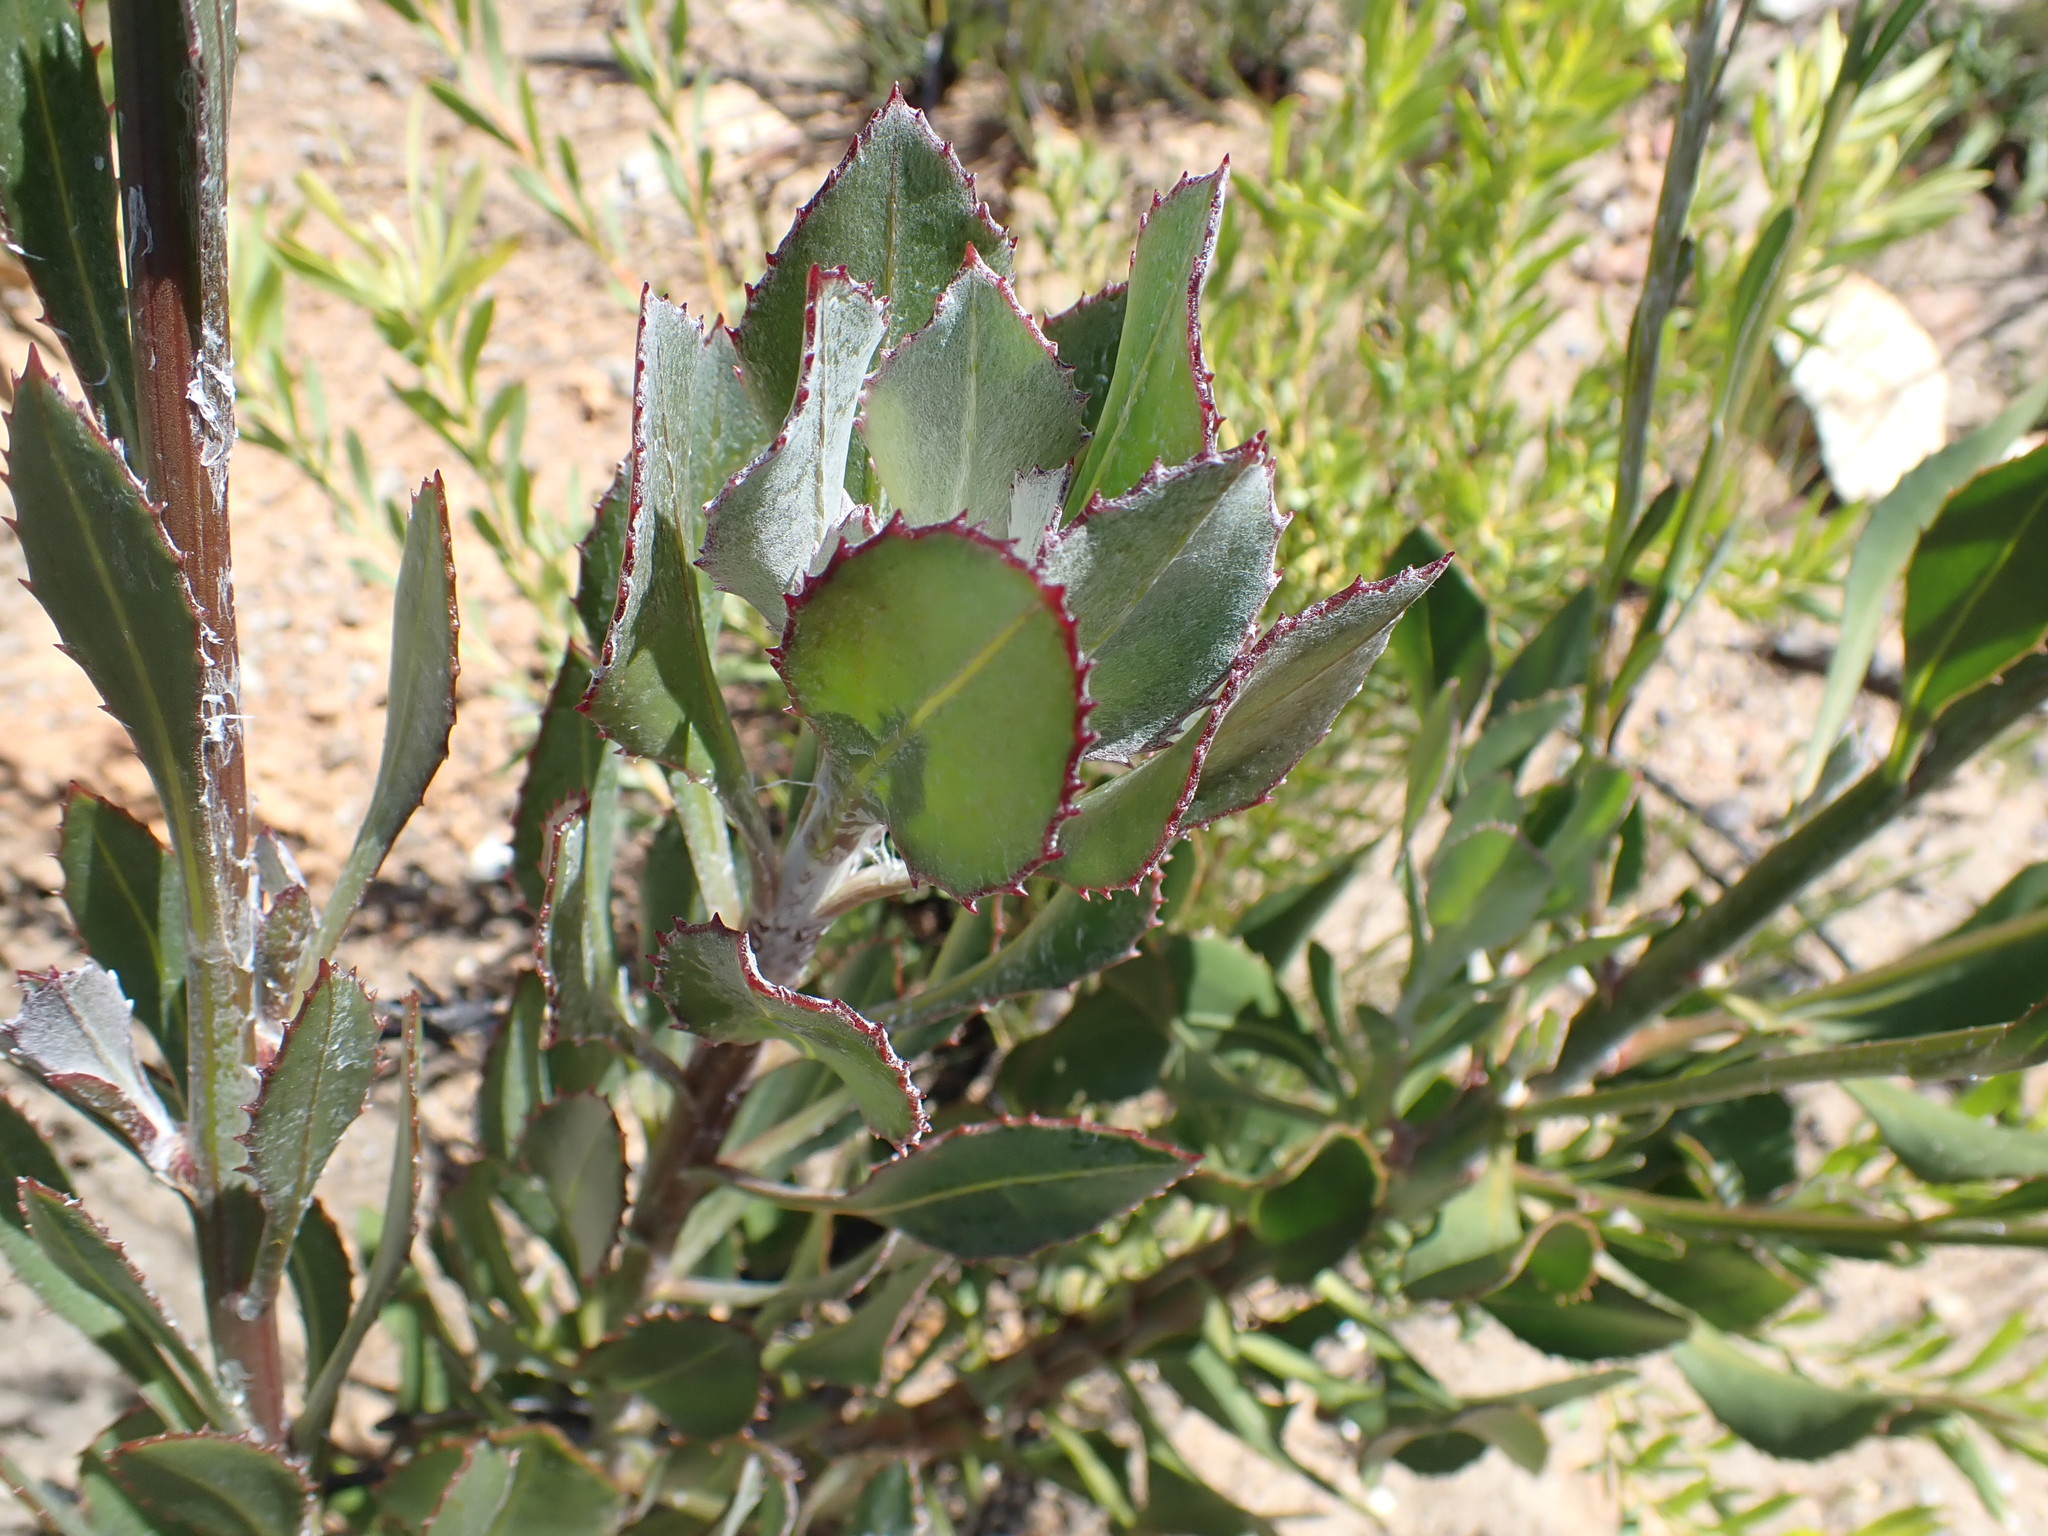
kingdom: Plantae
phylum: Tracheophyta
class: Magnoliopsida
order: Asterales
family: Asteraceae
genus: Osteospermum
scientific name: Osteospermum polygaloides
